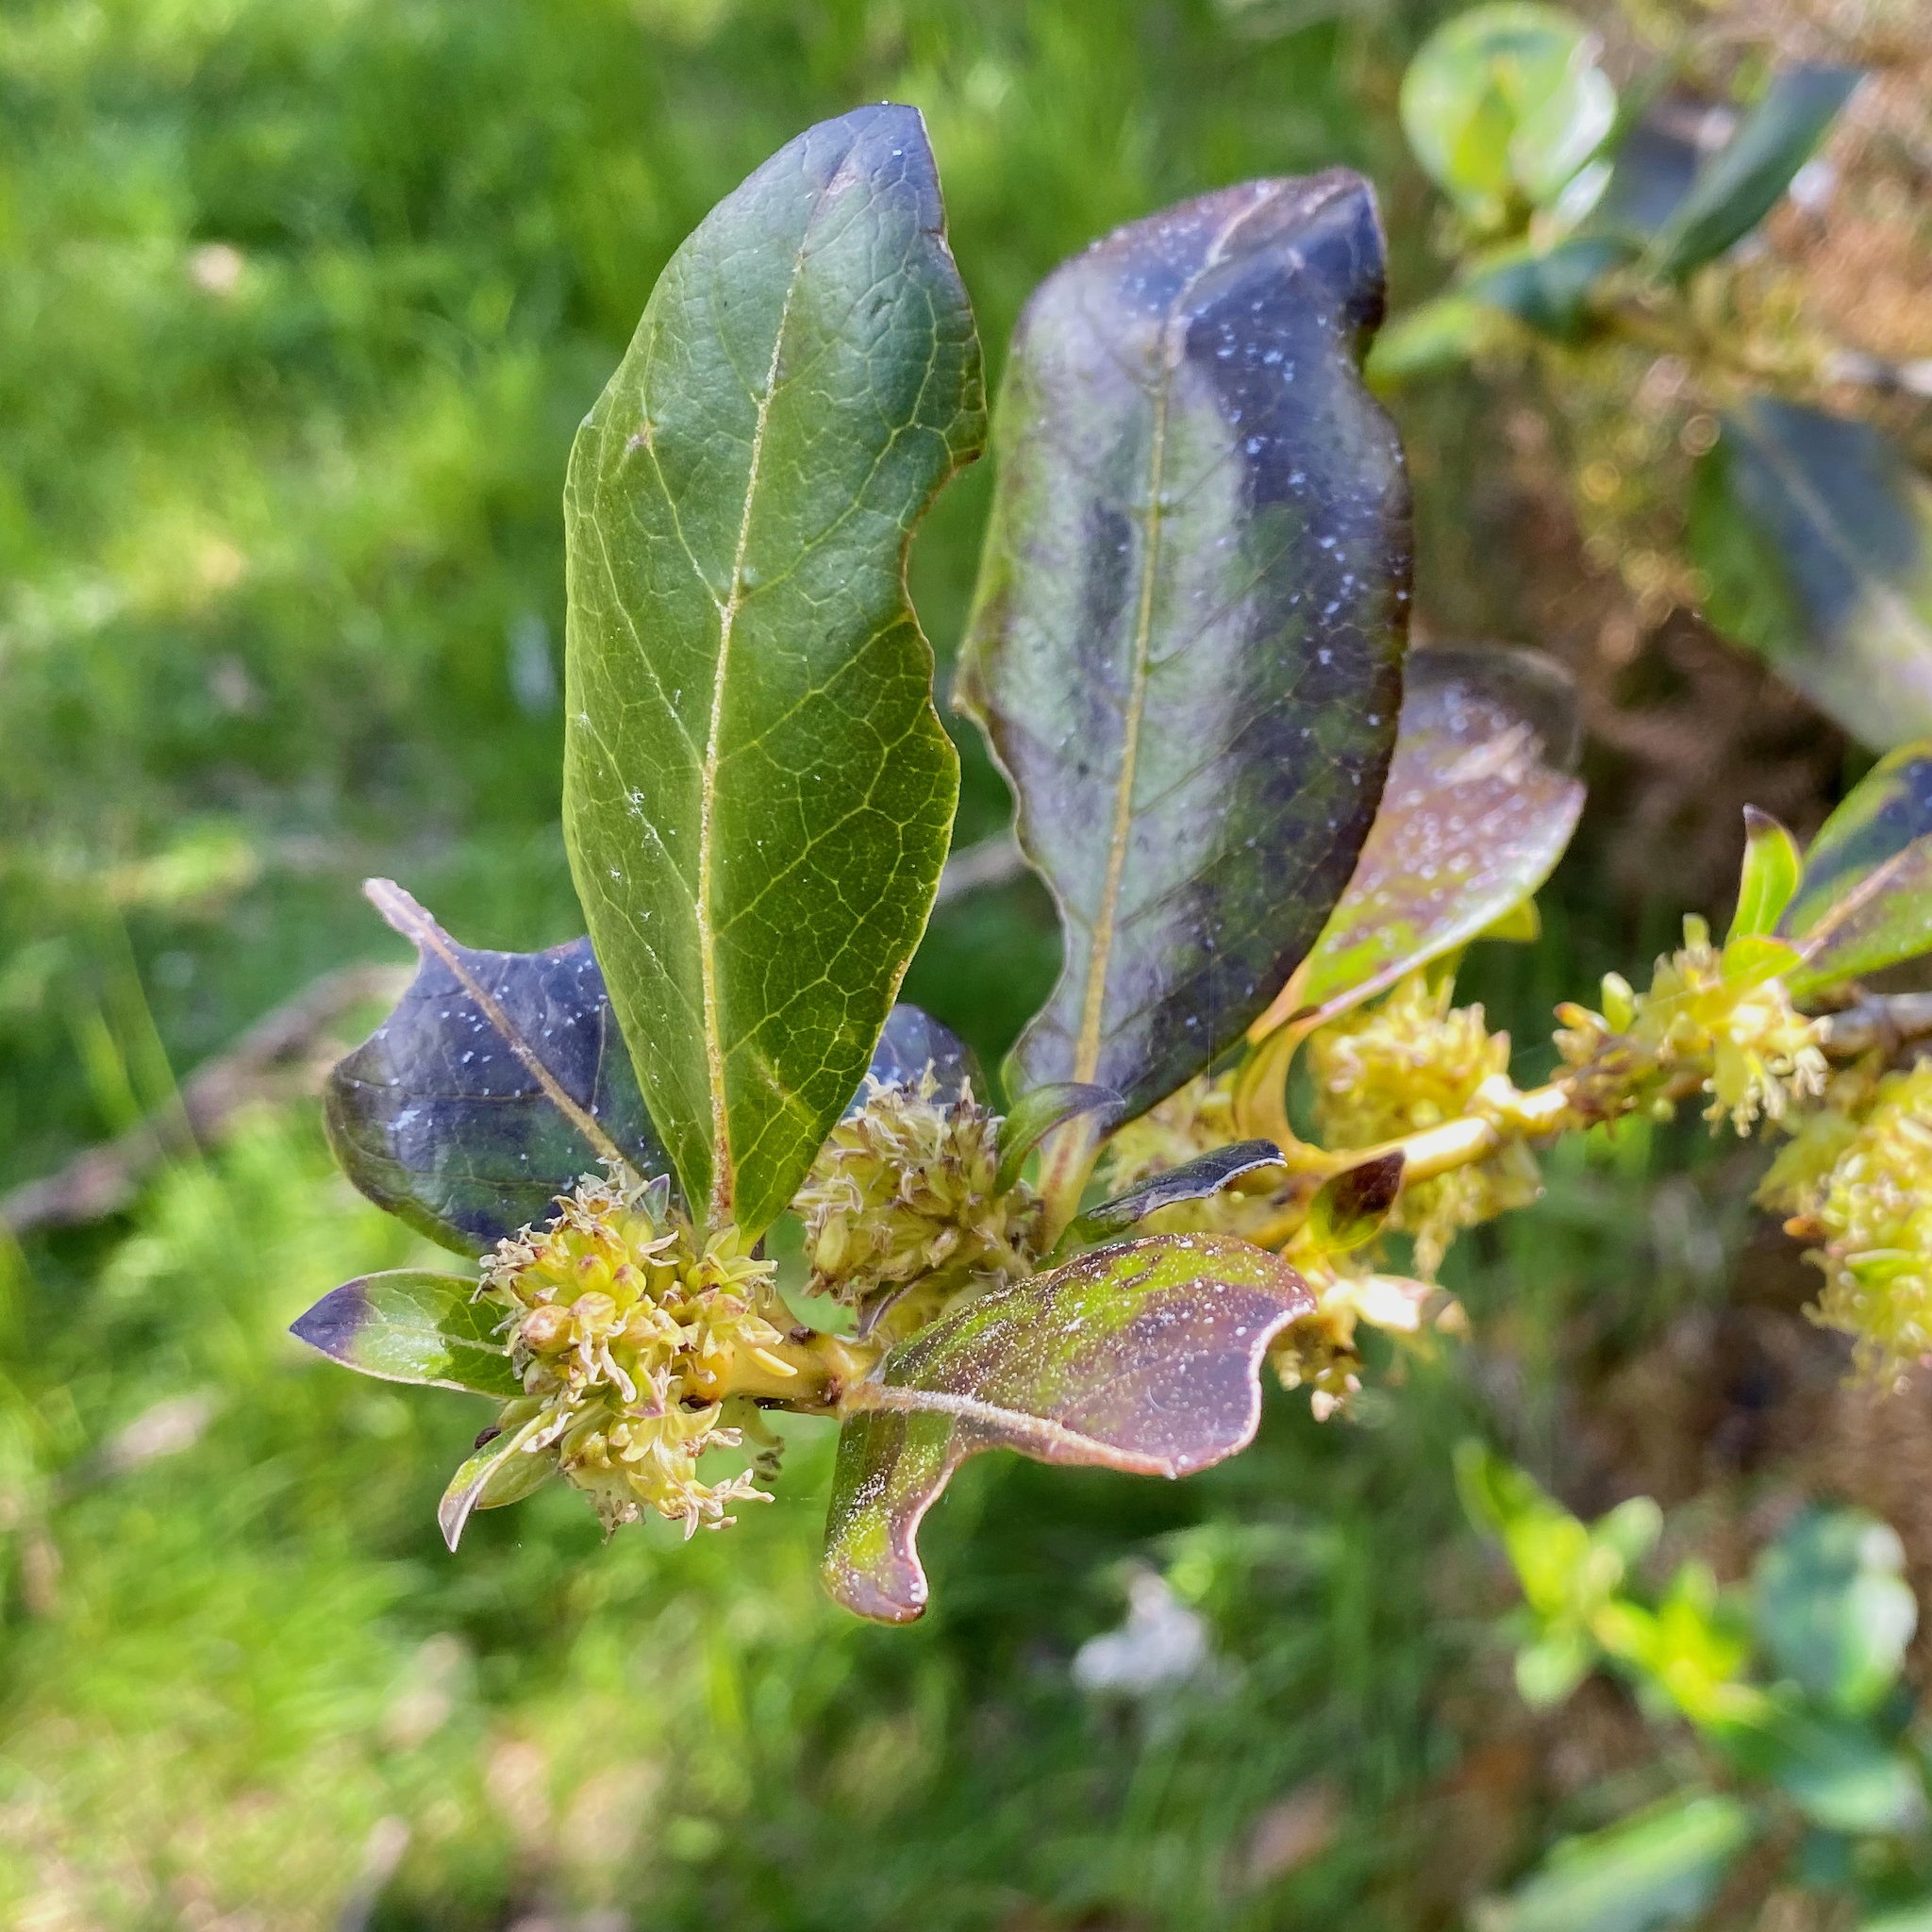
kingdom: Plantae
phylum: Tracheophyta
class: Magnoliopsida
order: Gentianales
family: Rubiaceae
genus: Coprosma
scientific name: Coprosma robusta
